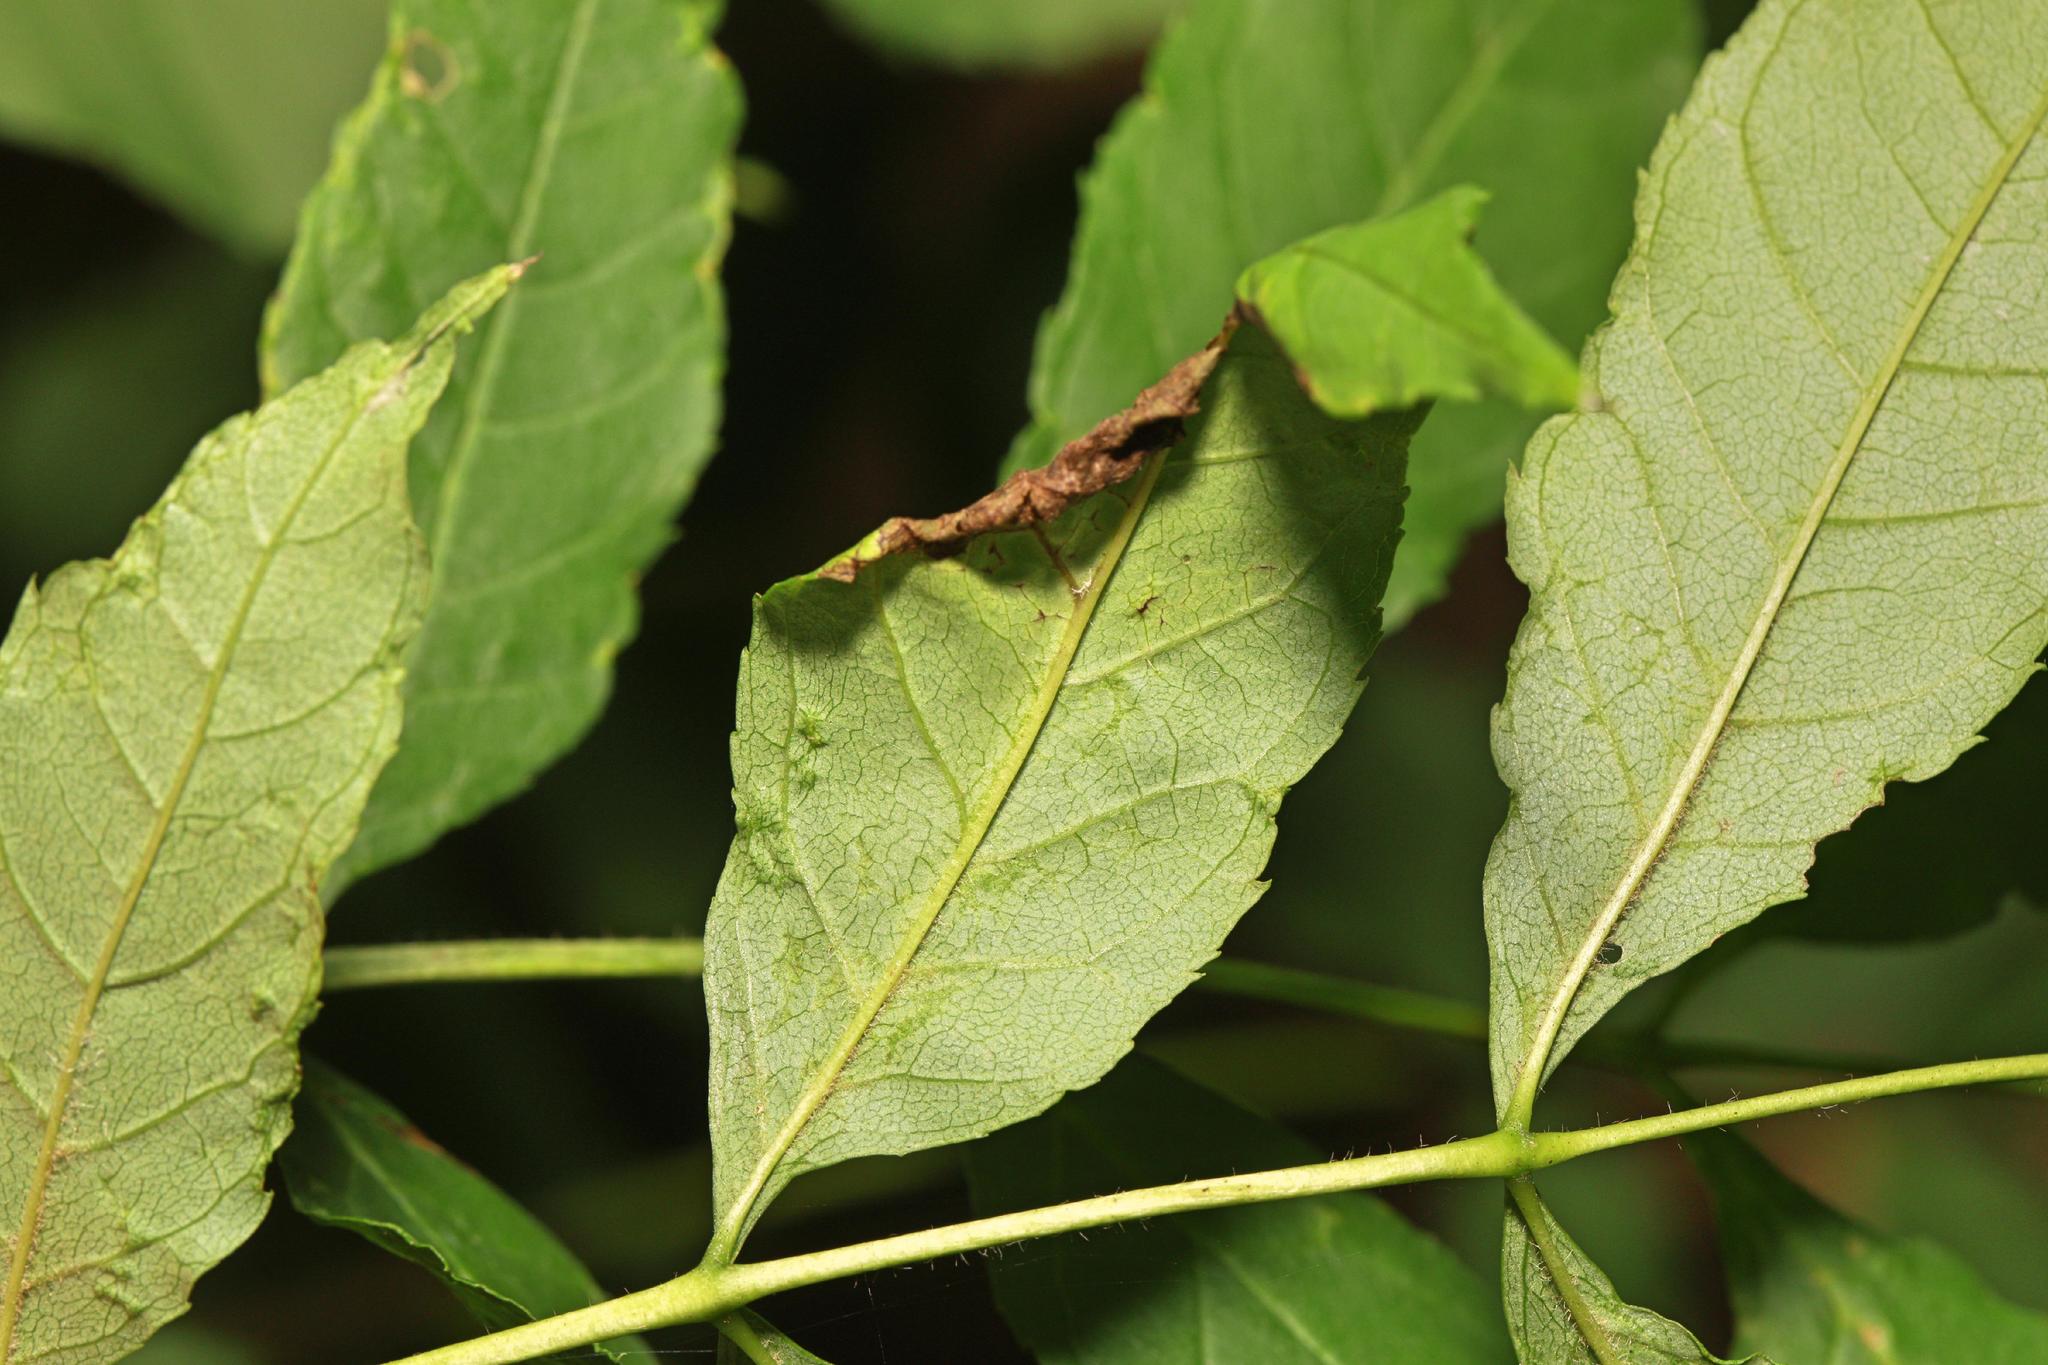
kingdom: Animalia
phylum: Arthropoda
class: Insecta
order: Hemiptera
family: Liviidae
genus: Psyllopsis
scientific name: Psyllopsis fraxini
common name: Jumping plant louse
